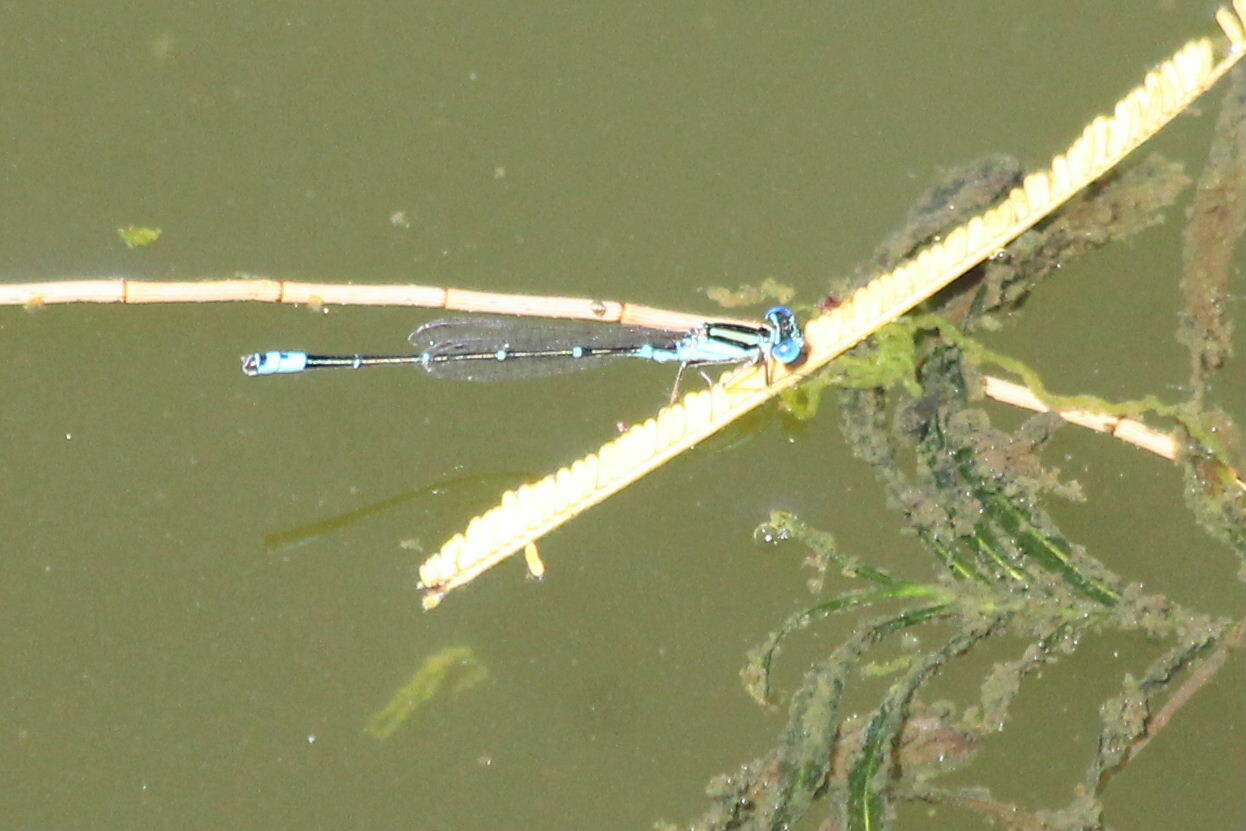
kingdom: Animalia
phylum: Arthropoda
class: Insecta
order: Odonata
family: Coenagrionidae
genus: Austroagrion
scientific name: Austroagrion watsoni
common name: Eastern billabongfly
